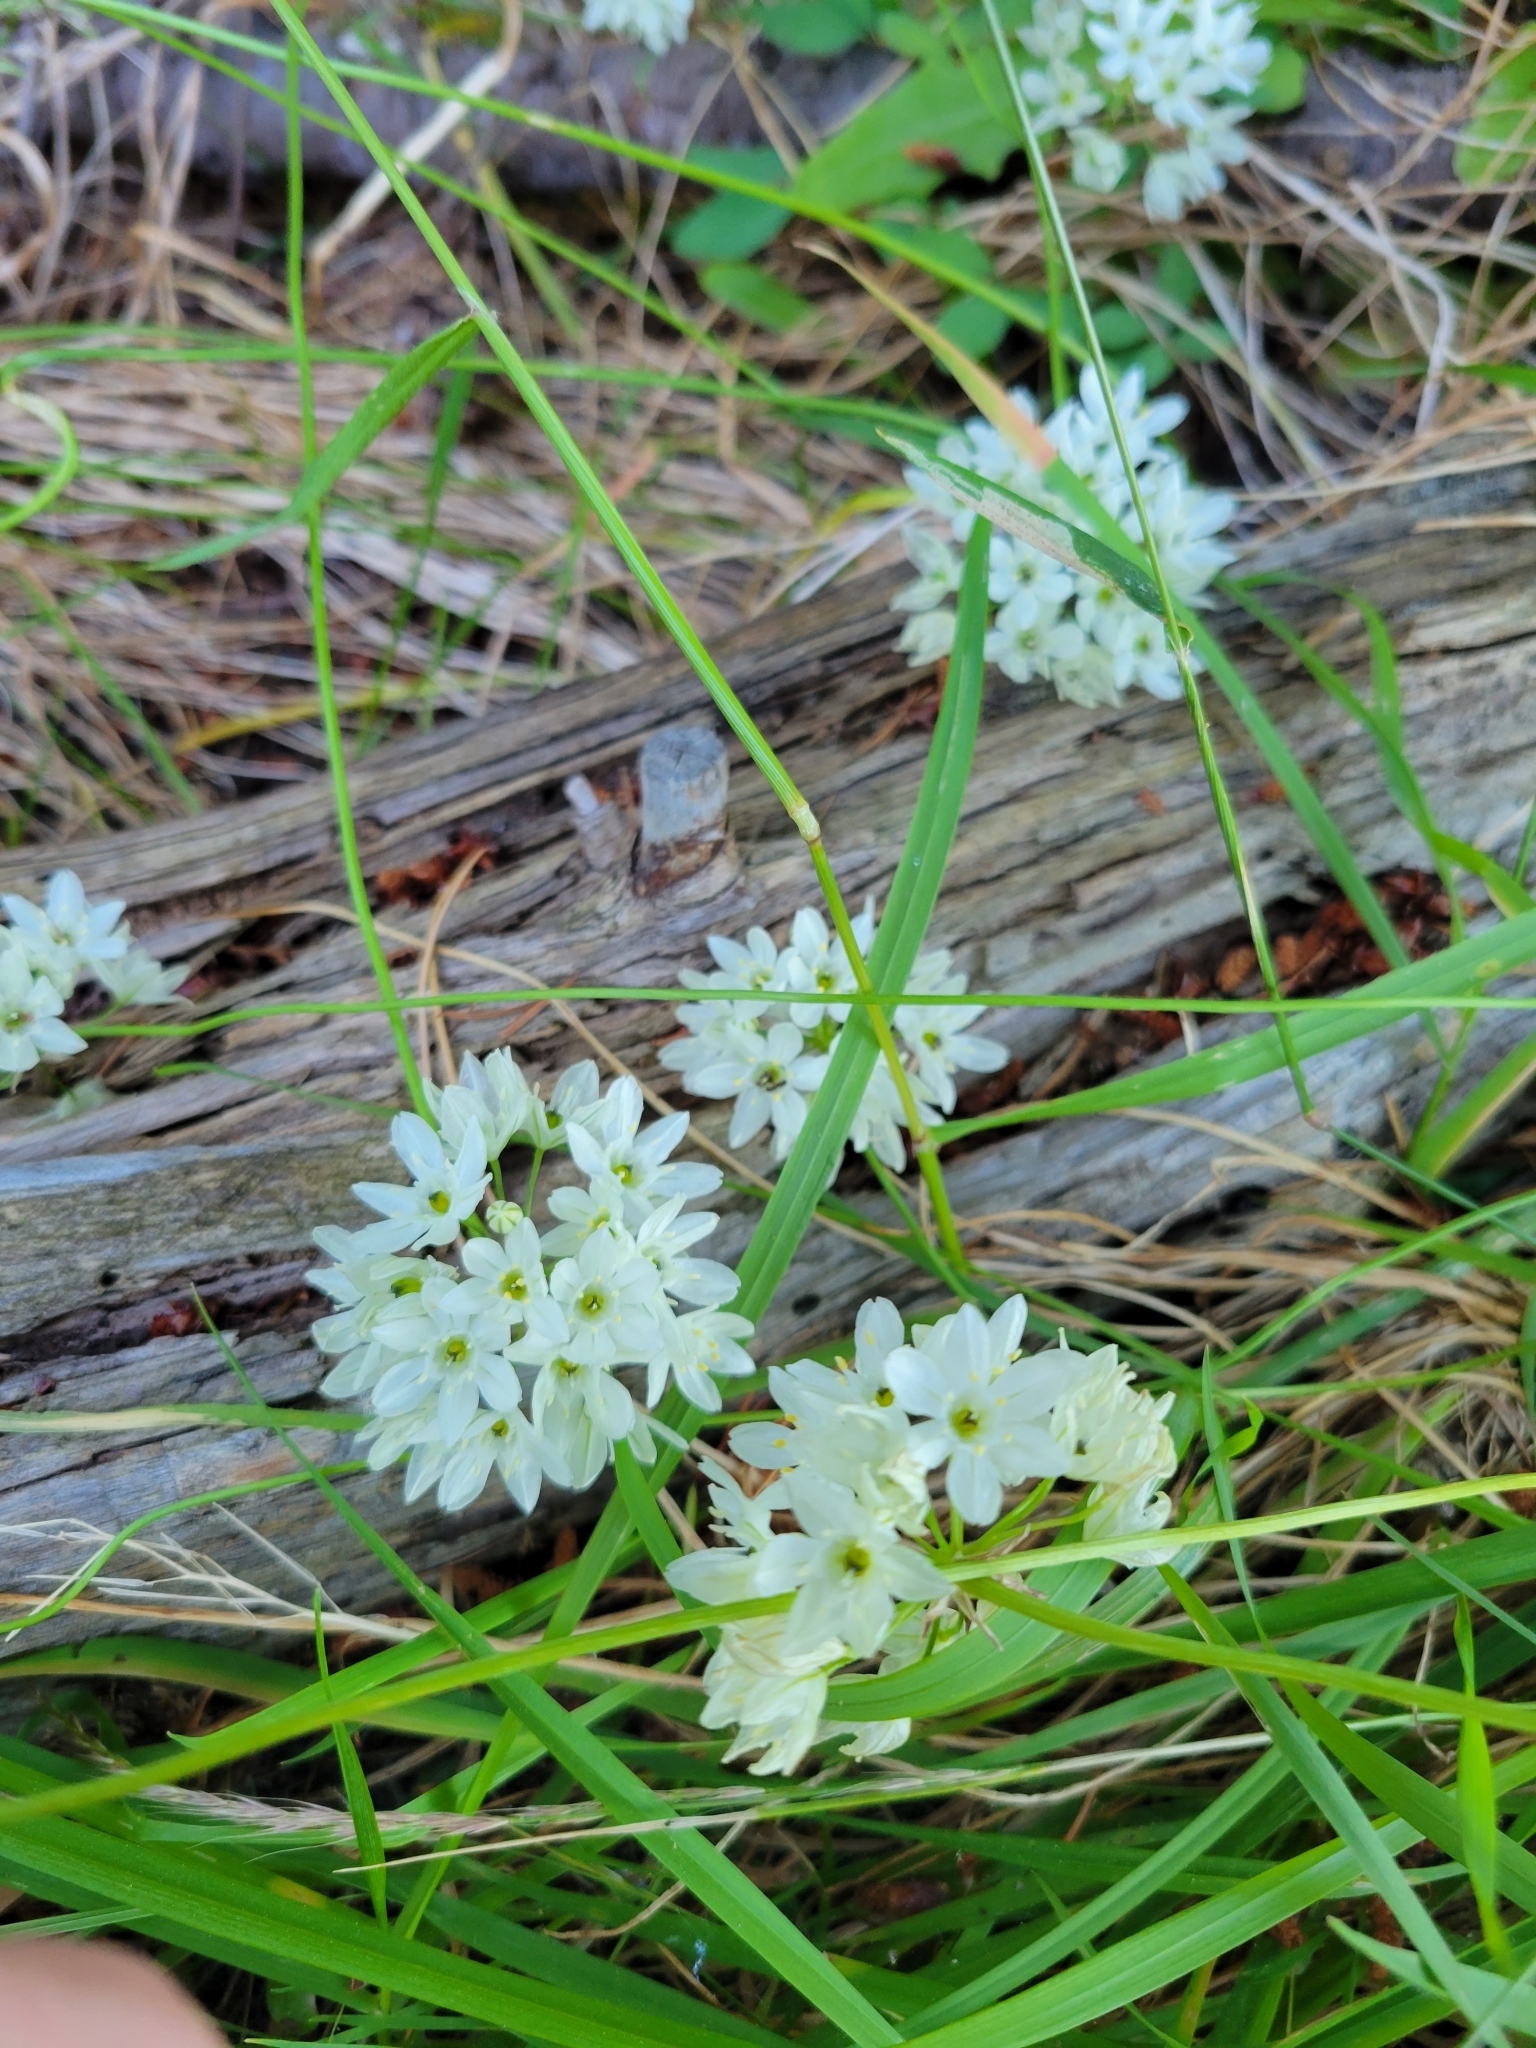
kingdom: Plantae
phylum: Tracheophyta
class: Liliopsida
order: Asparagales
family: Asparagaceae
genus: Triteleia
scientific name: Triteleia hyacinthina
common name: White brodiaea
